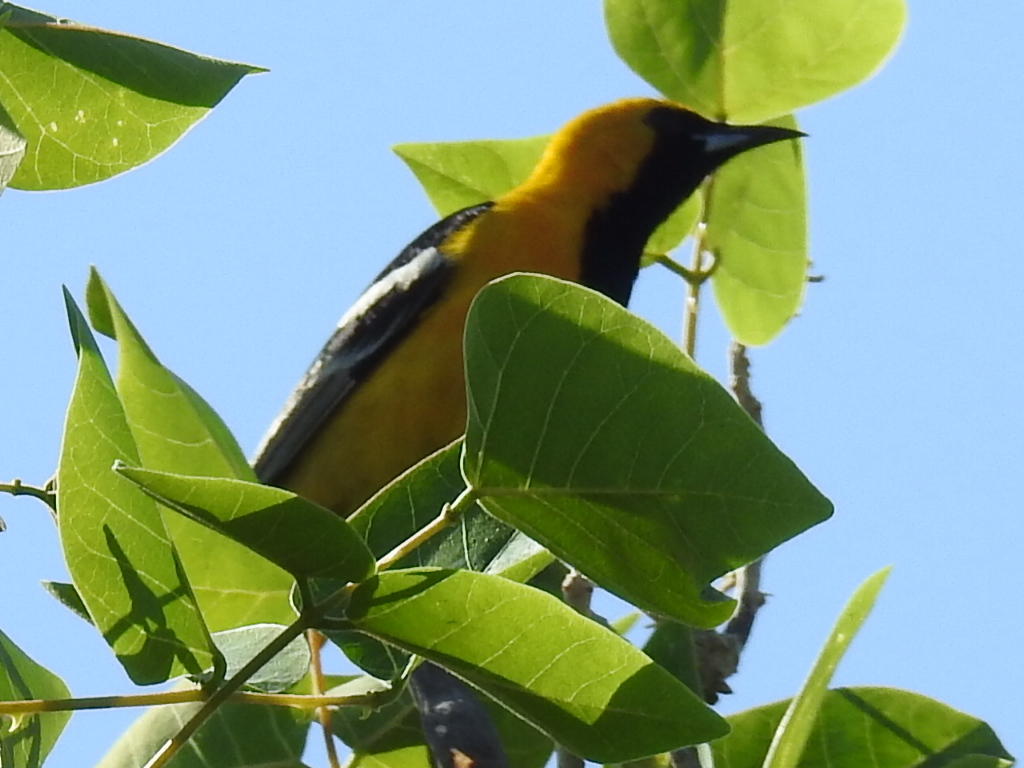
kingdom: Animalia
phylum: Chordata
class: Aves
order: Passeriformes
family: Icteridae
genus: Icterus
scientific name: Icterus cucullatus
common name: Hooded oriole
